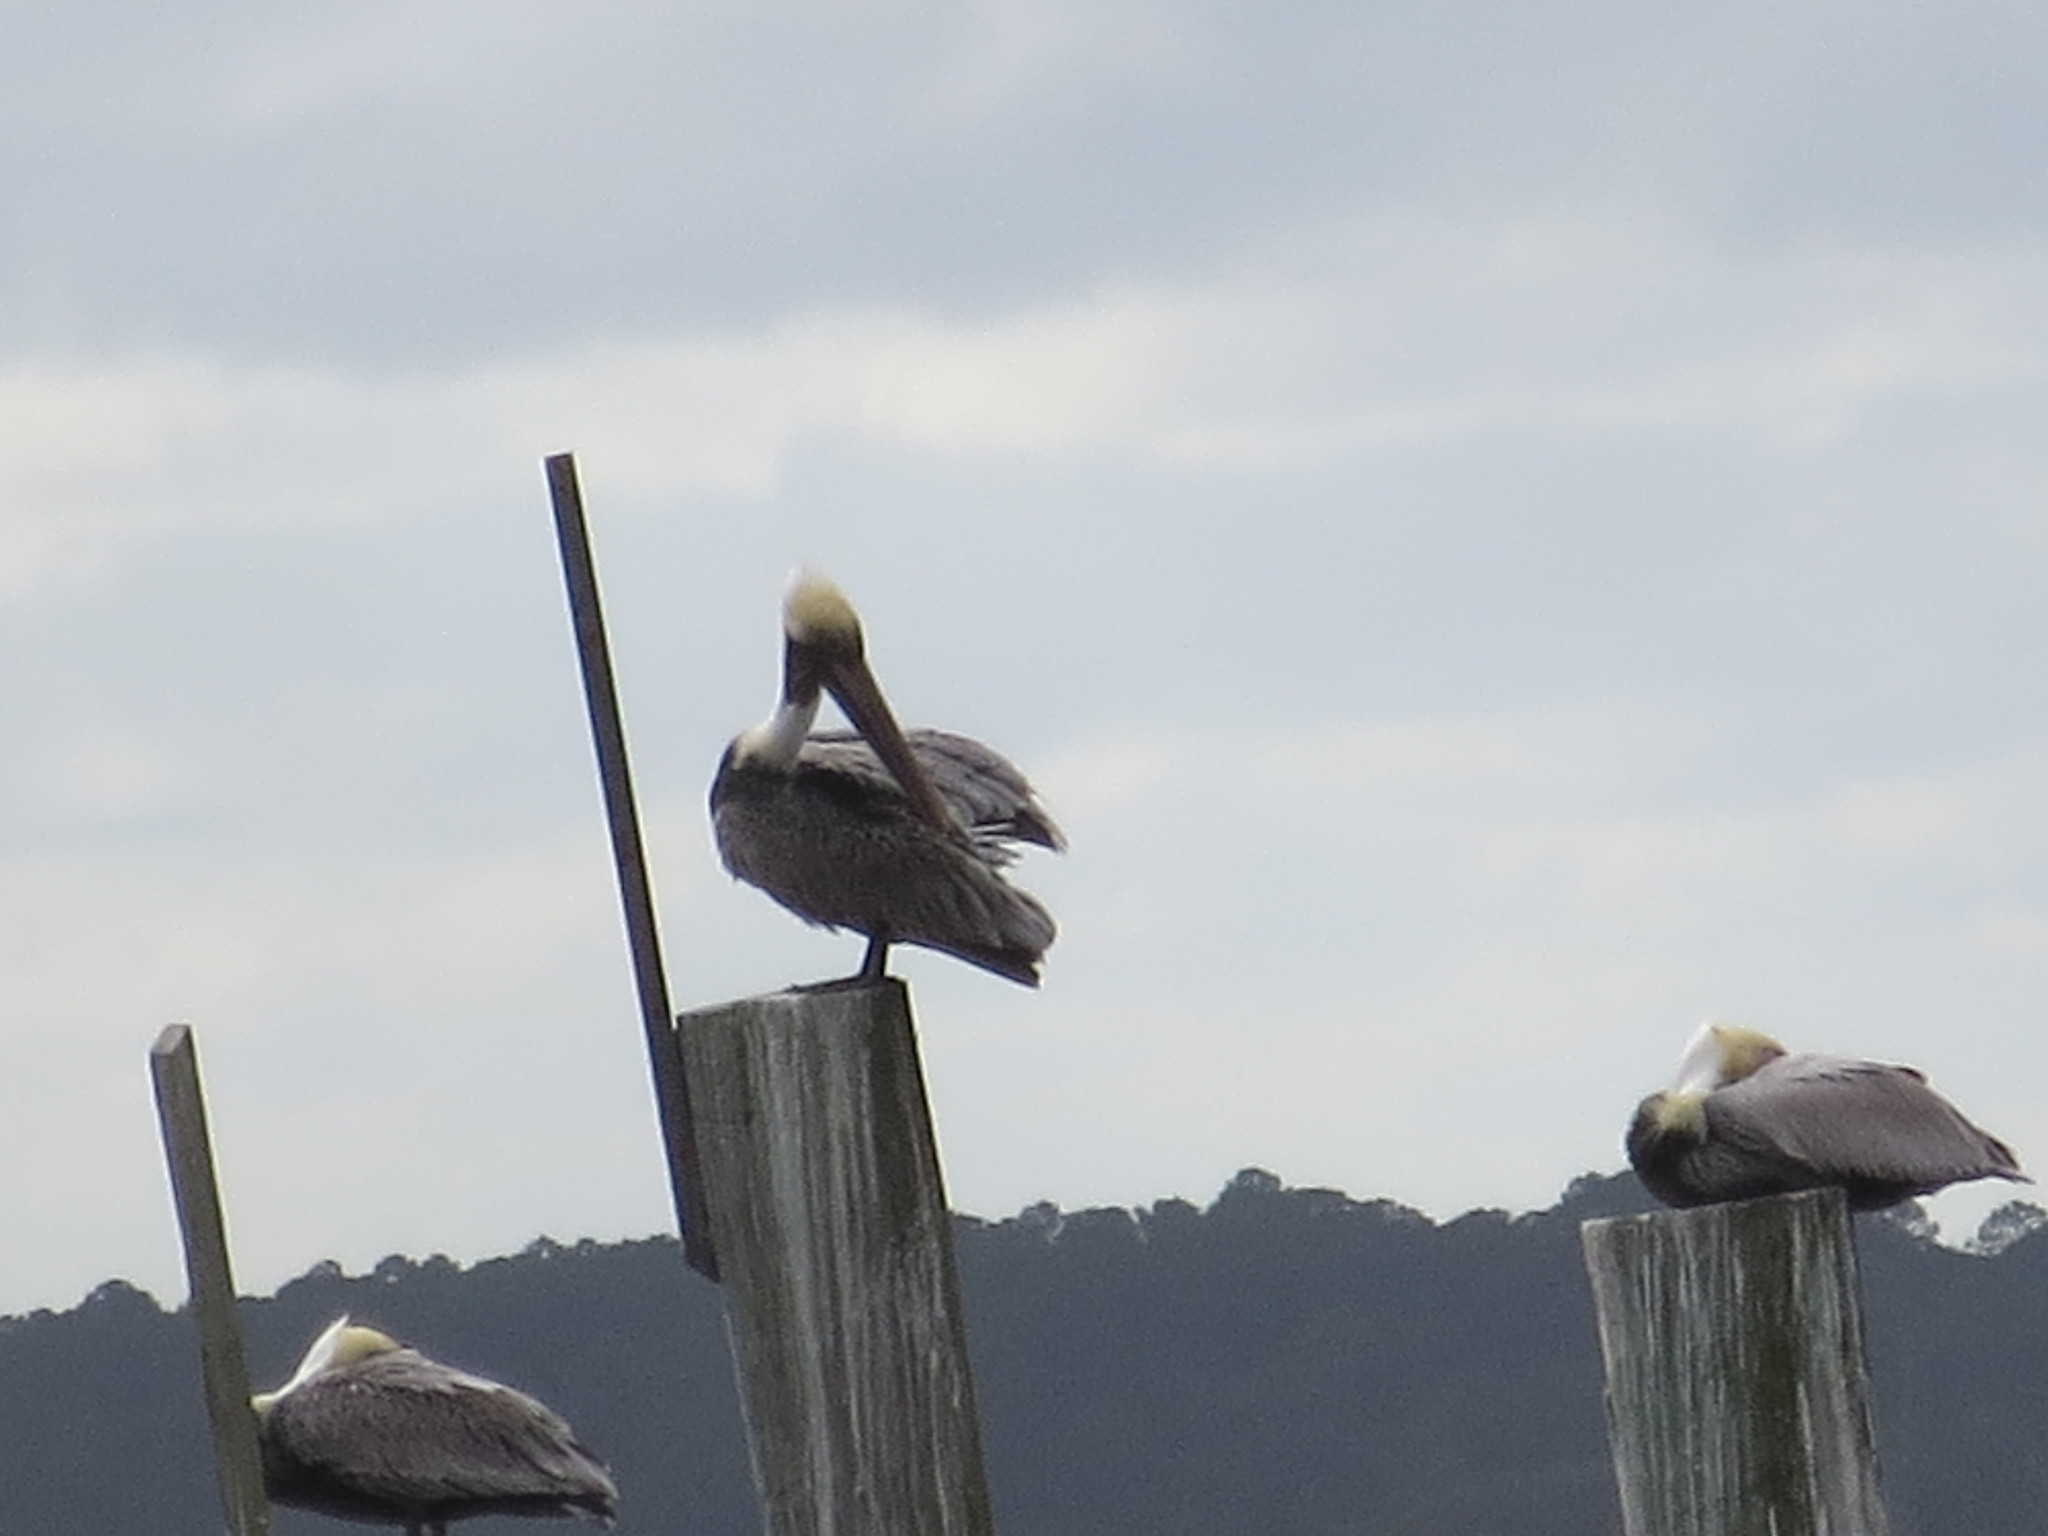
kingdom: Animalia
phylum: Chordata
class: Aves
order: Pelecaniformes
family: Pelecanidae
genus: Pelecanus
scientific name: Pelecanus occidentalis
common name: Brown pelican
